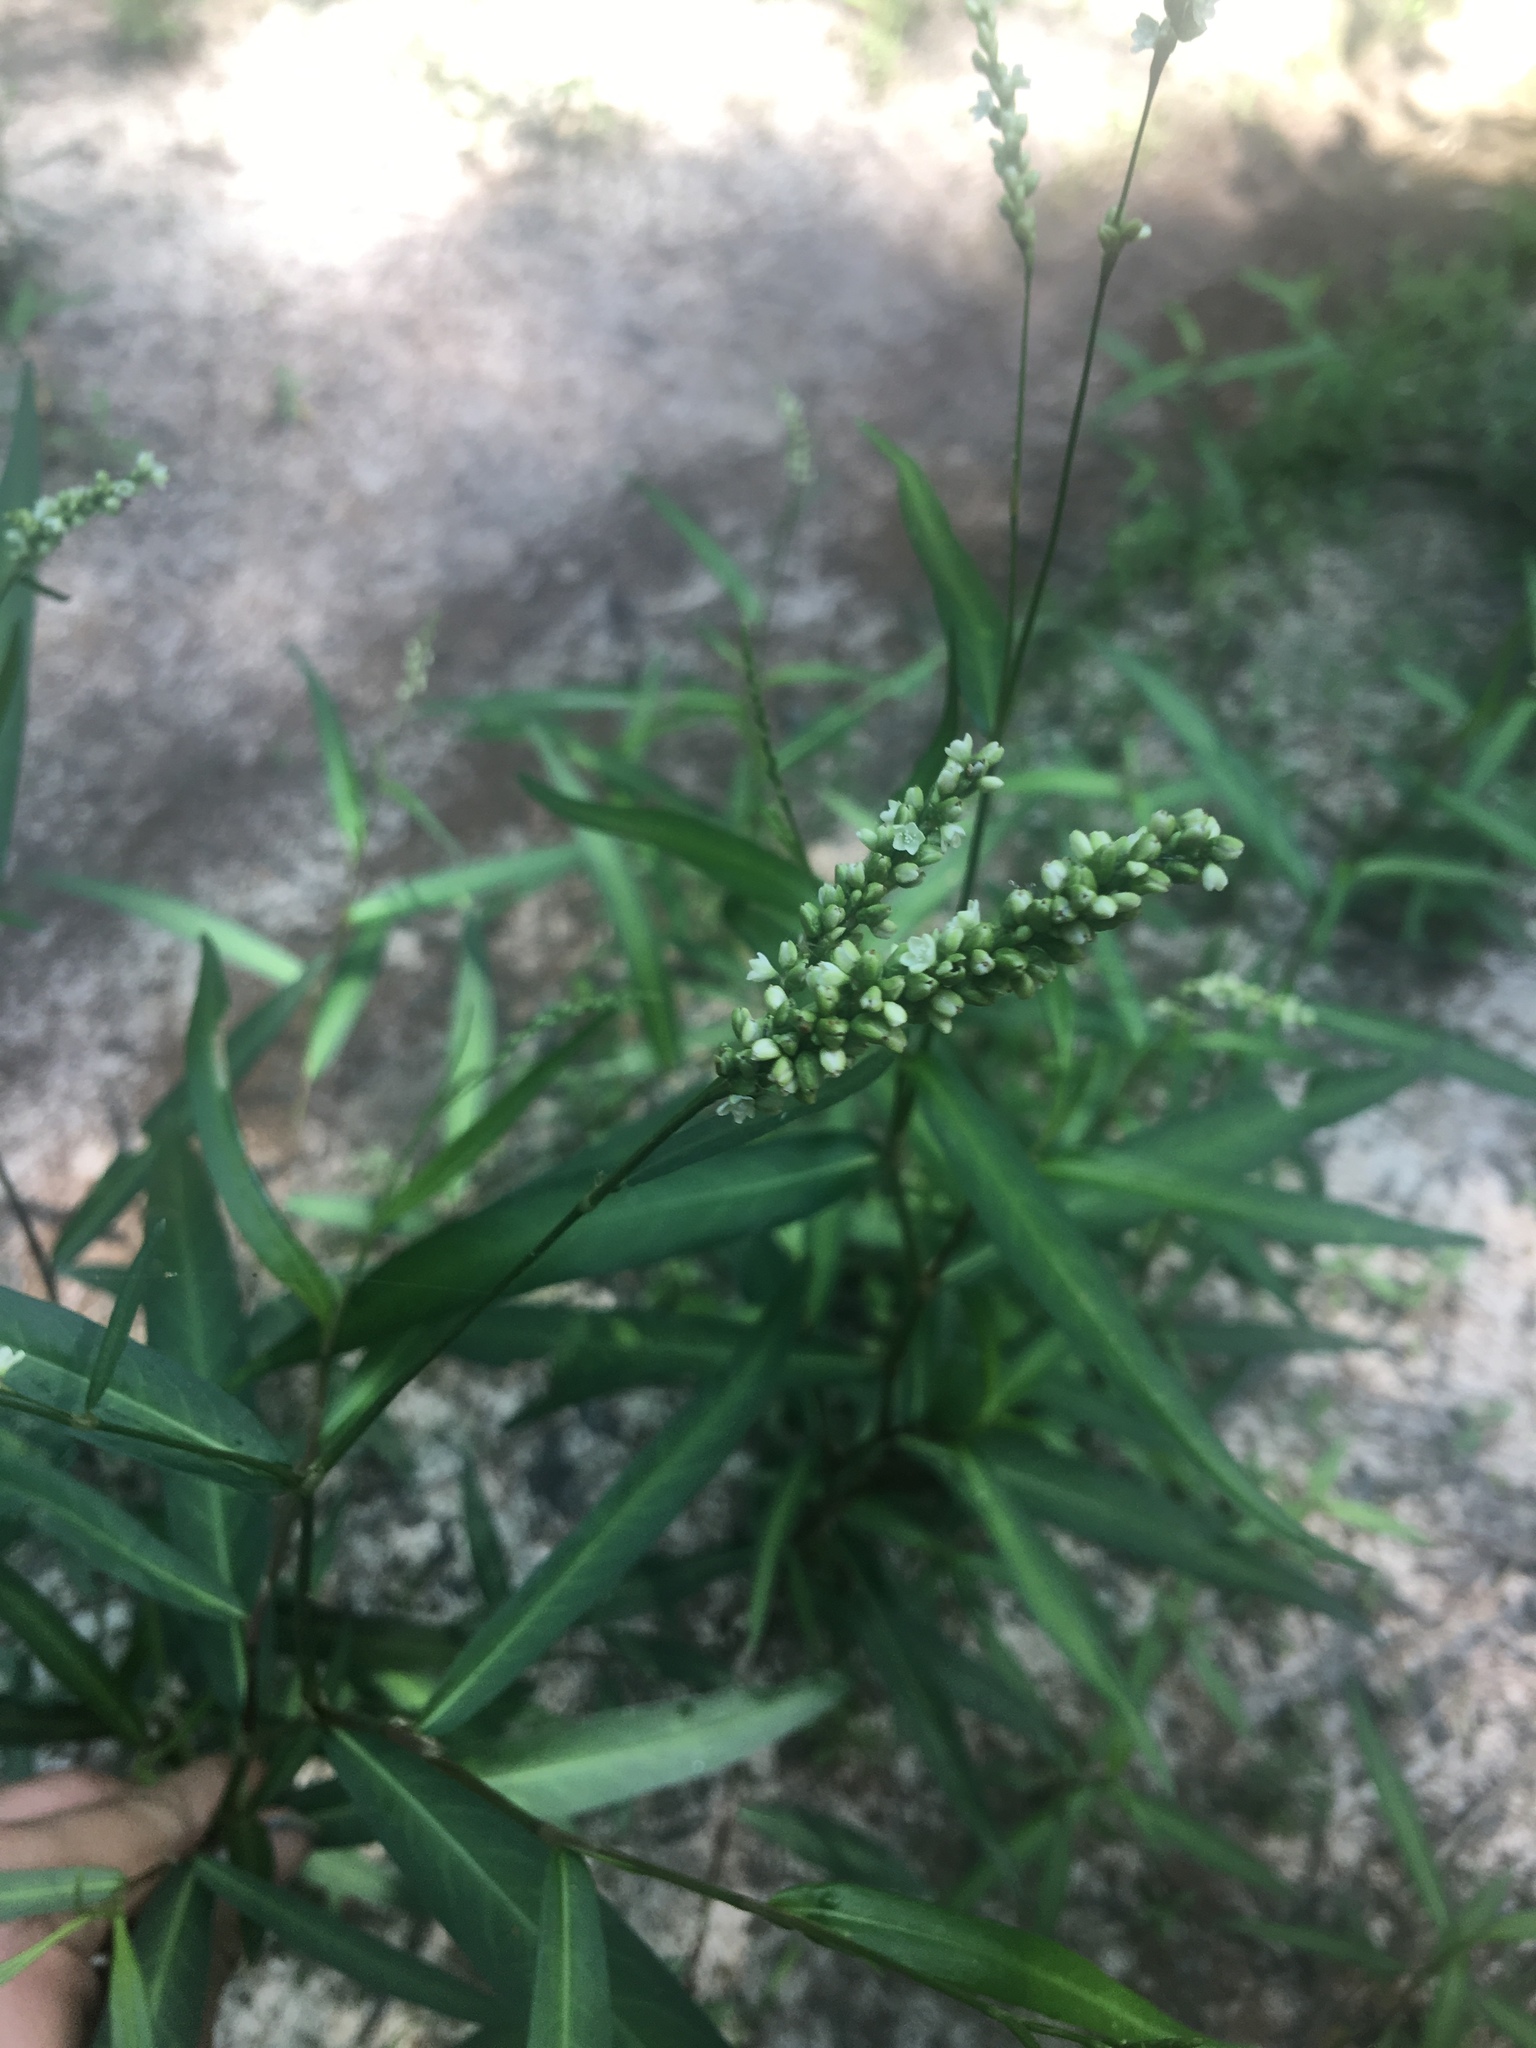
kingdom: Plantae
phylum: Tracheophyta
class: Magnoliopsida
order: Caryophyllales
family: Polygonaceae
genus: Persicaria
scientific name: Persicaria hydropiperoides
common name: Swamp smartweed
